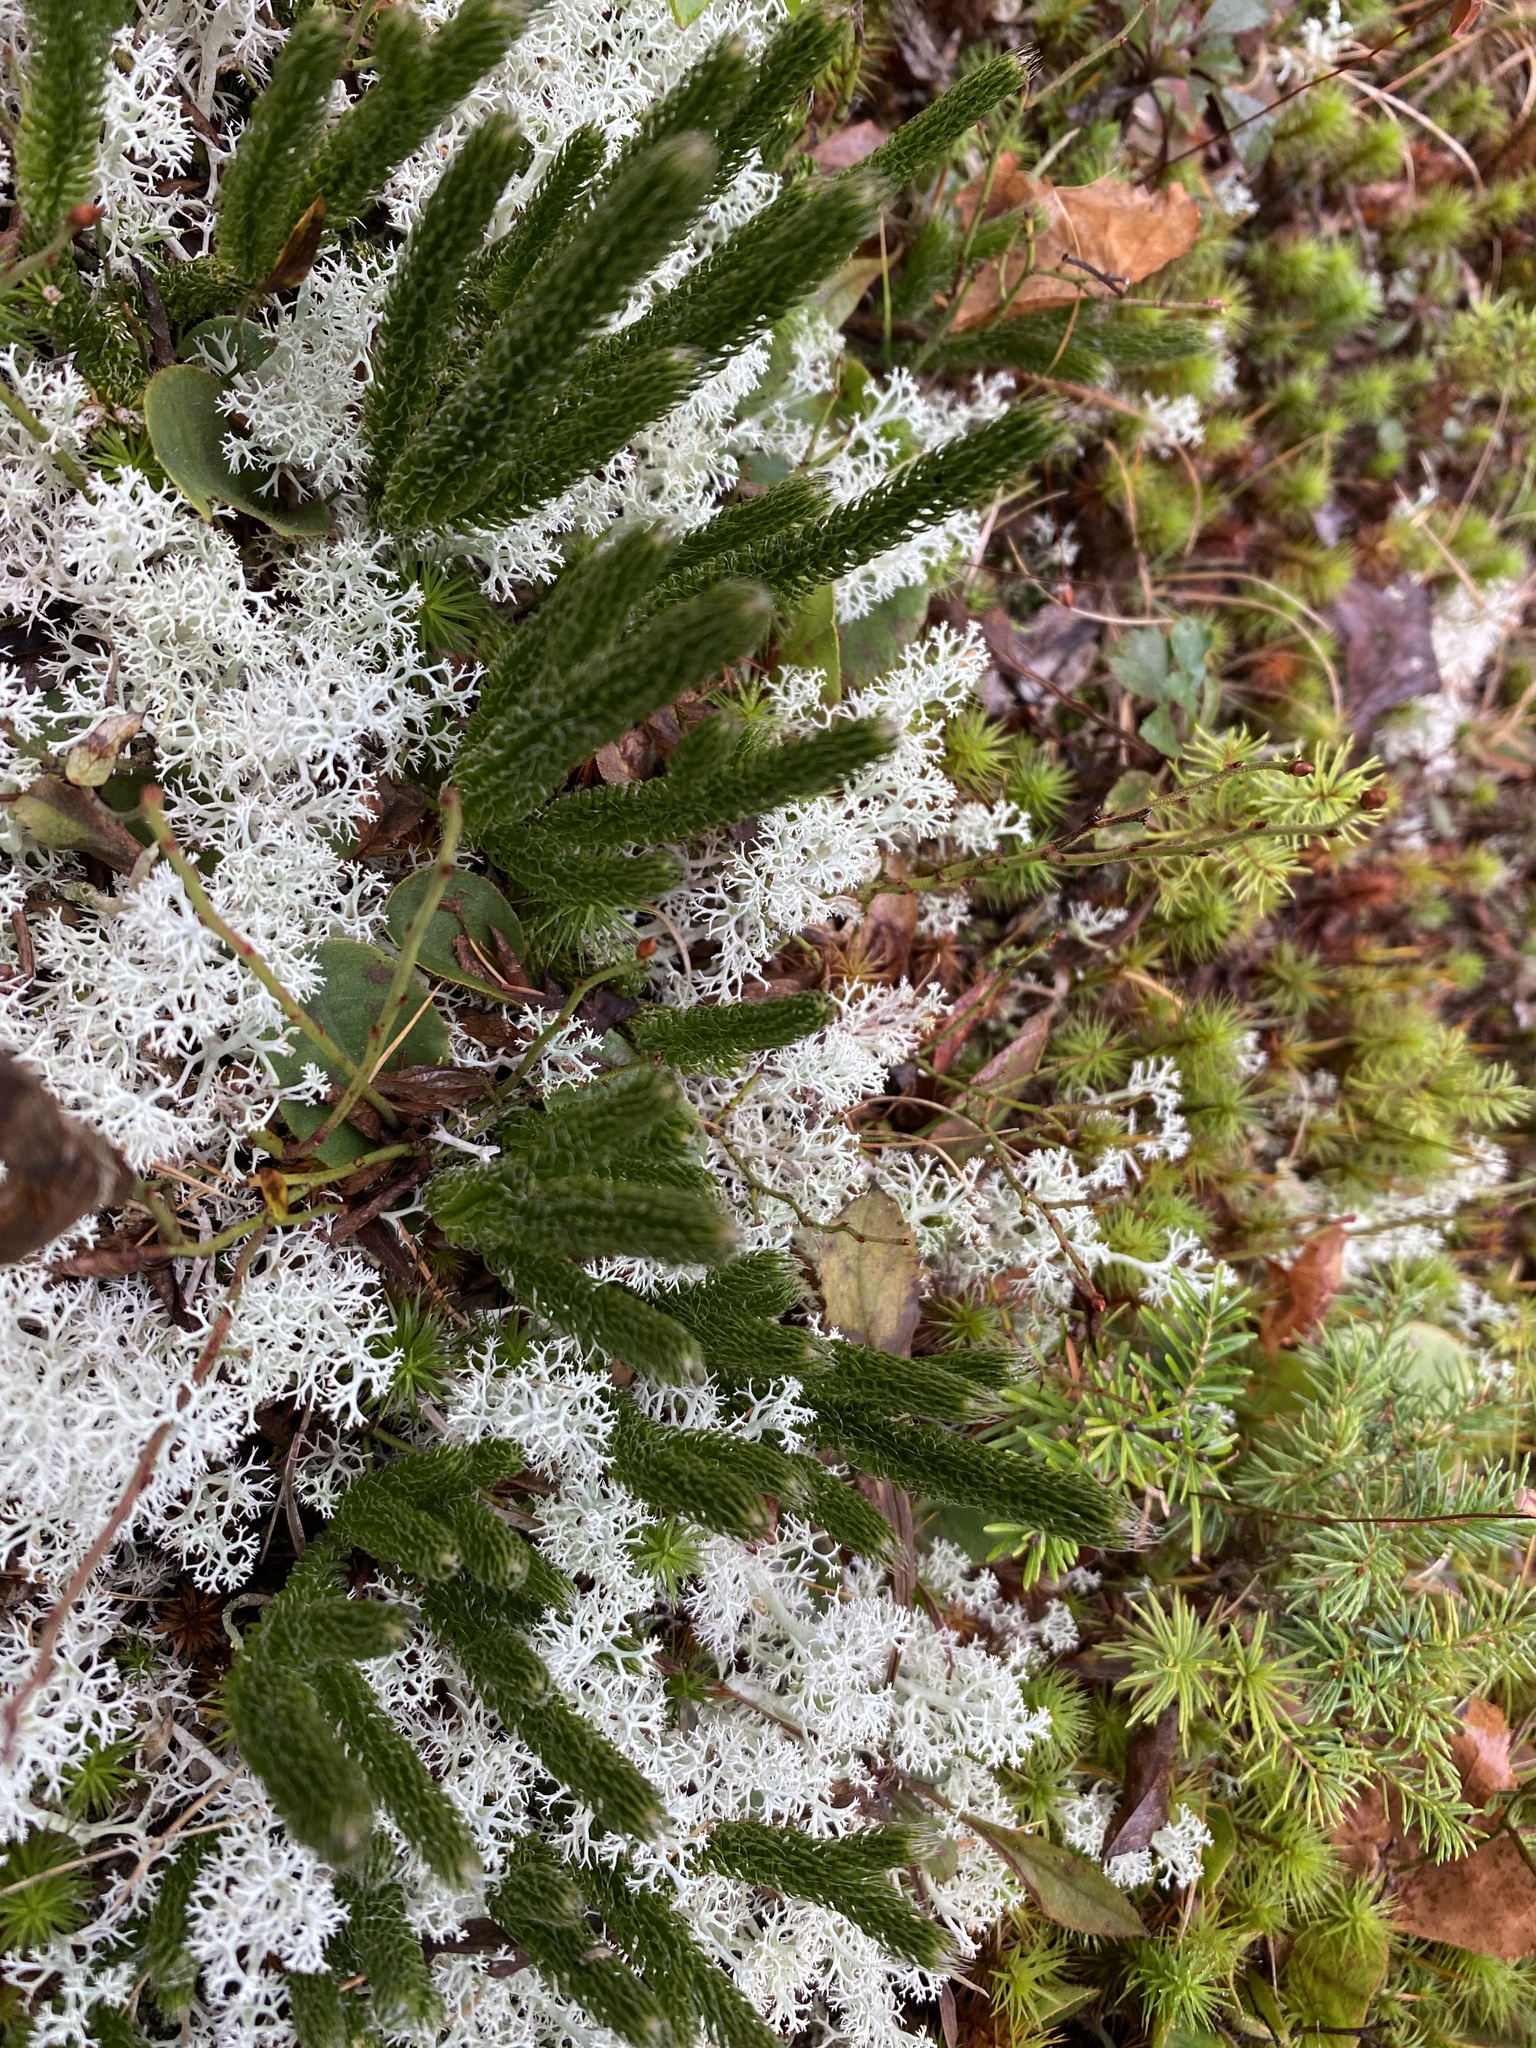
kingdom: Plantae
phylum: Tracheophyta
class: Lycopodiopsida
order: Lycopodiales
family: Lycopodiaceae
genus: Lycopodium
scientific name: Lycopodium lagopus
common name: One-cone clubmoss
